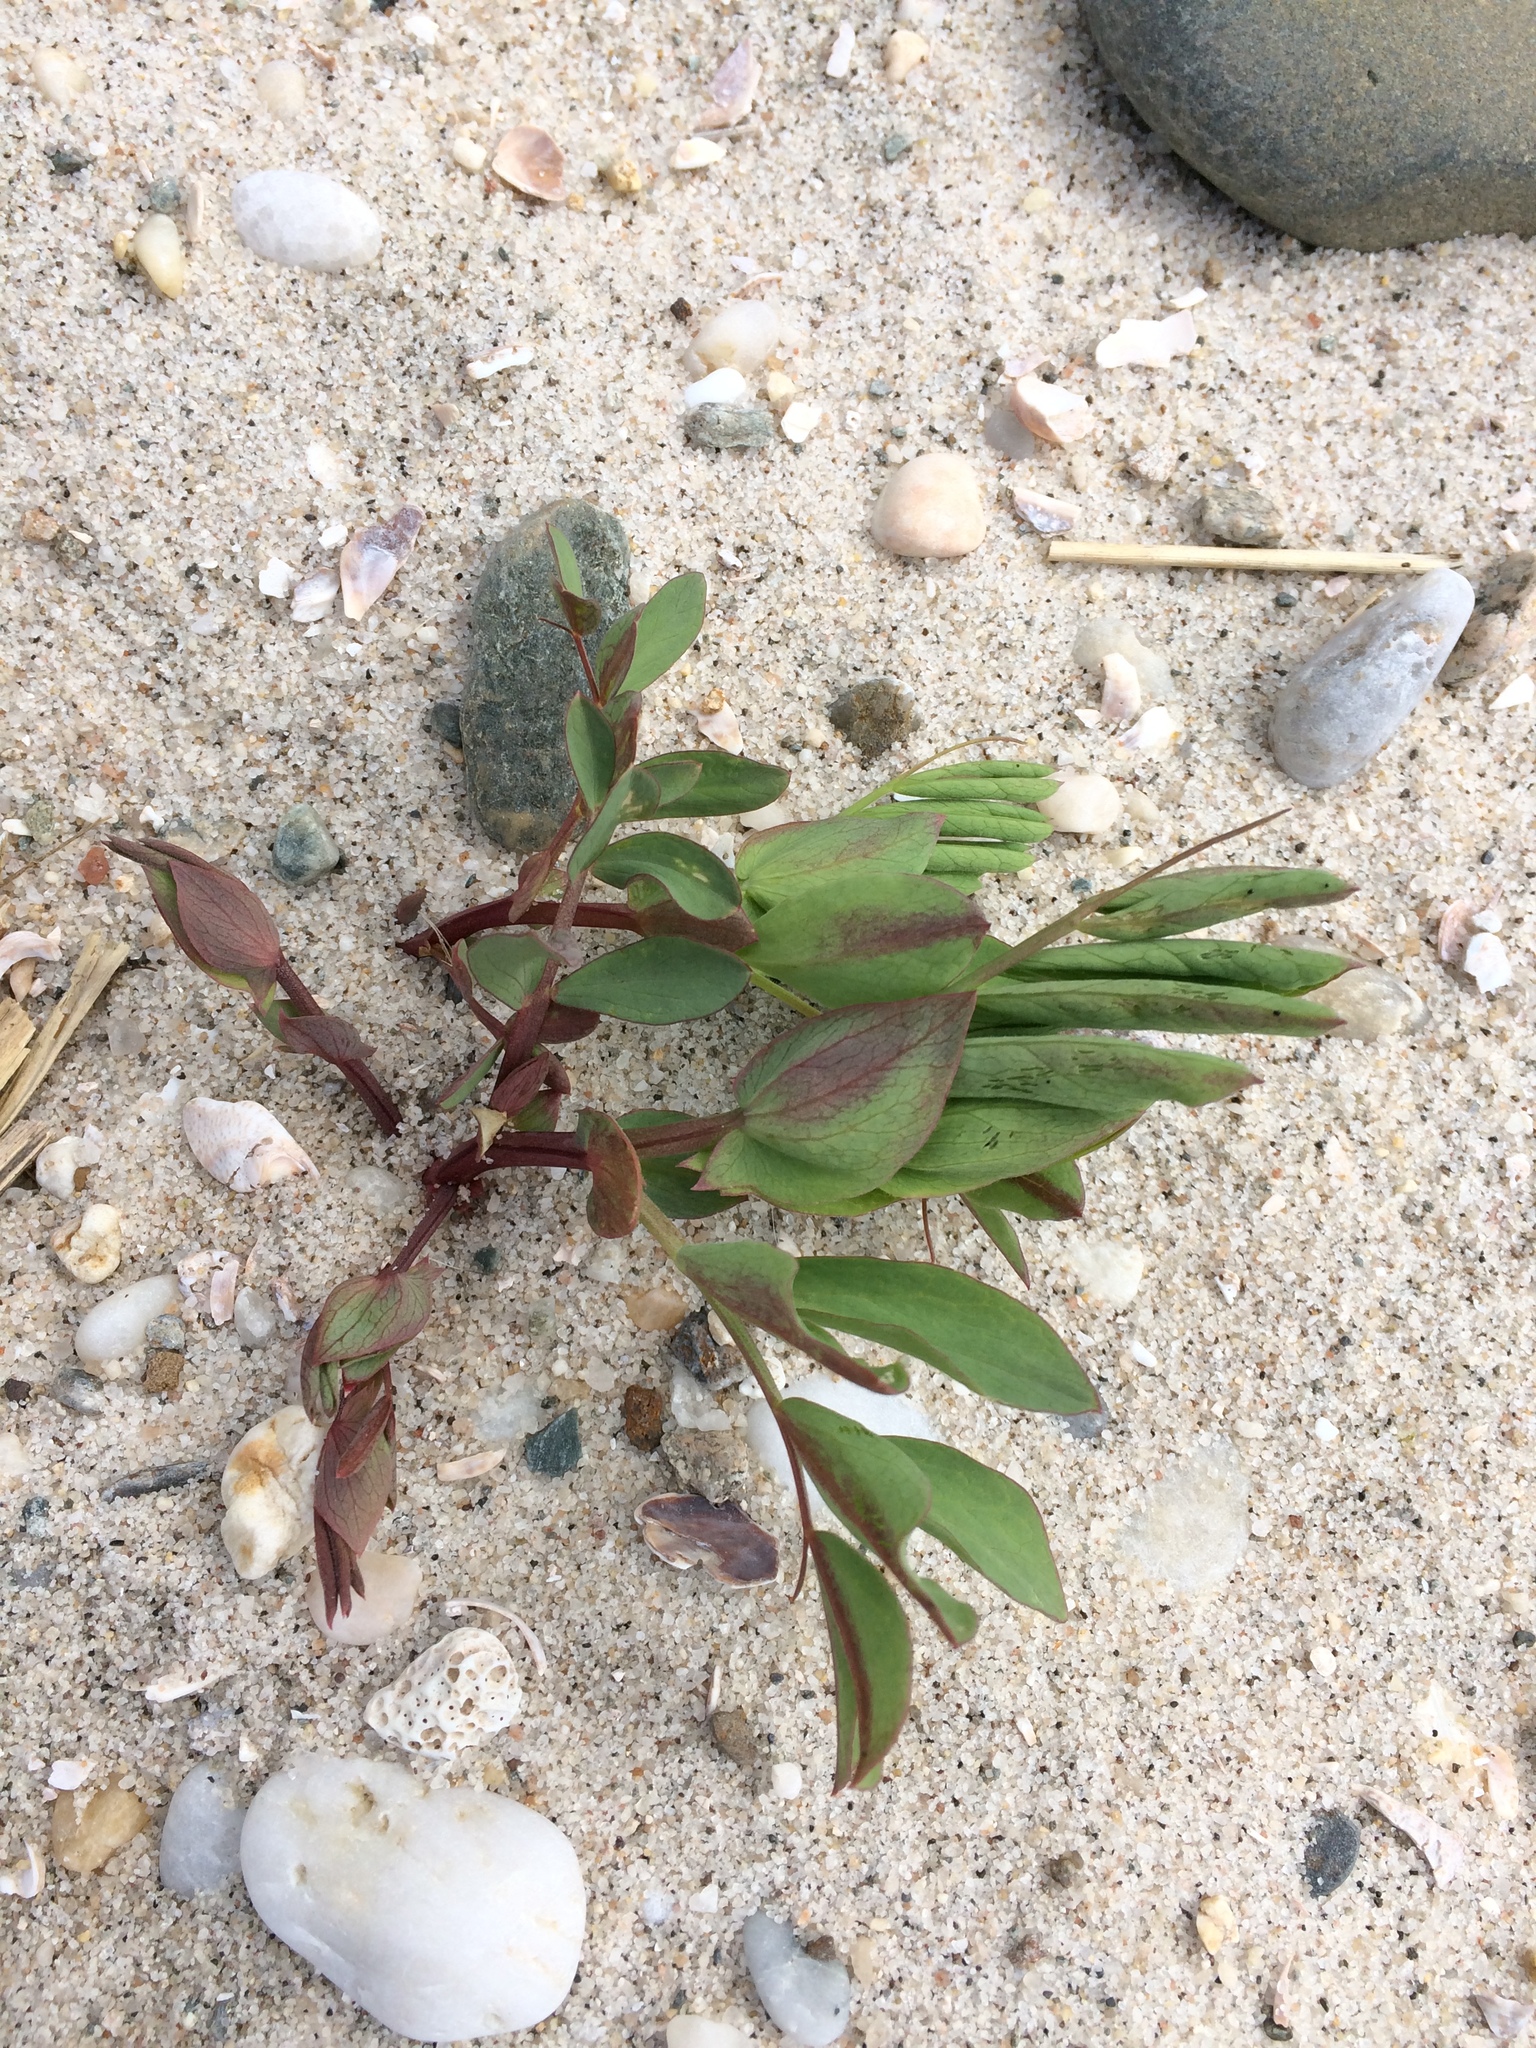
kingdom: Plantae
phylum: Tracheophyta
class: Magnoliopsida
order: Fabales
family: Fabaceae
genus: Lathyrus
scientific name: Lathyrus japonicus
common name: Sea pea
